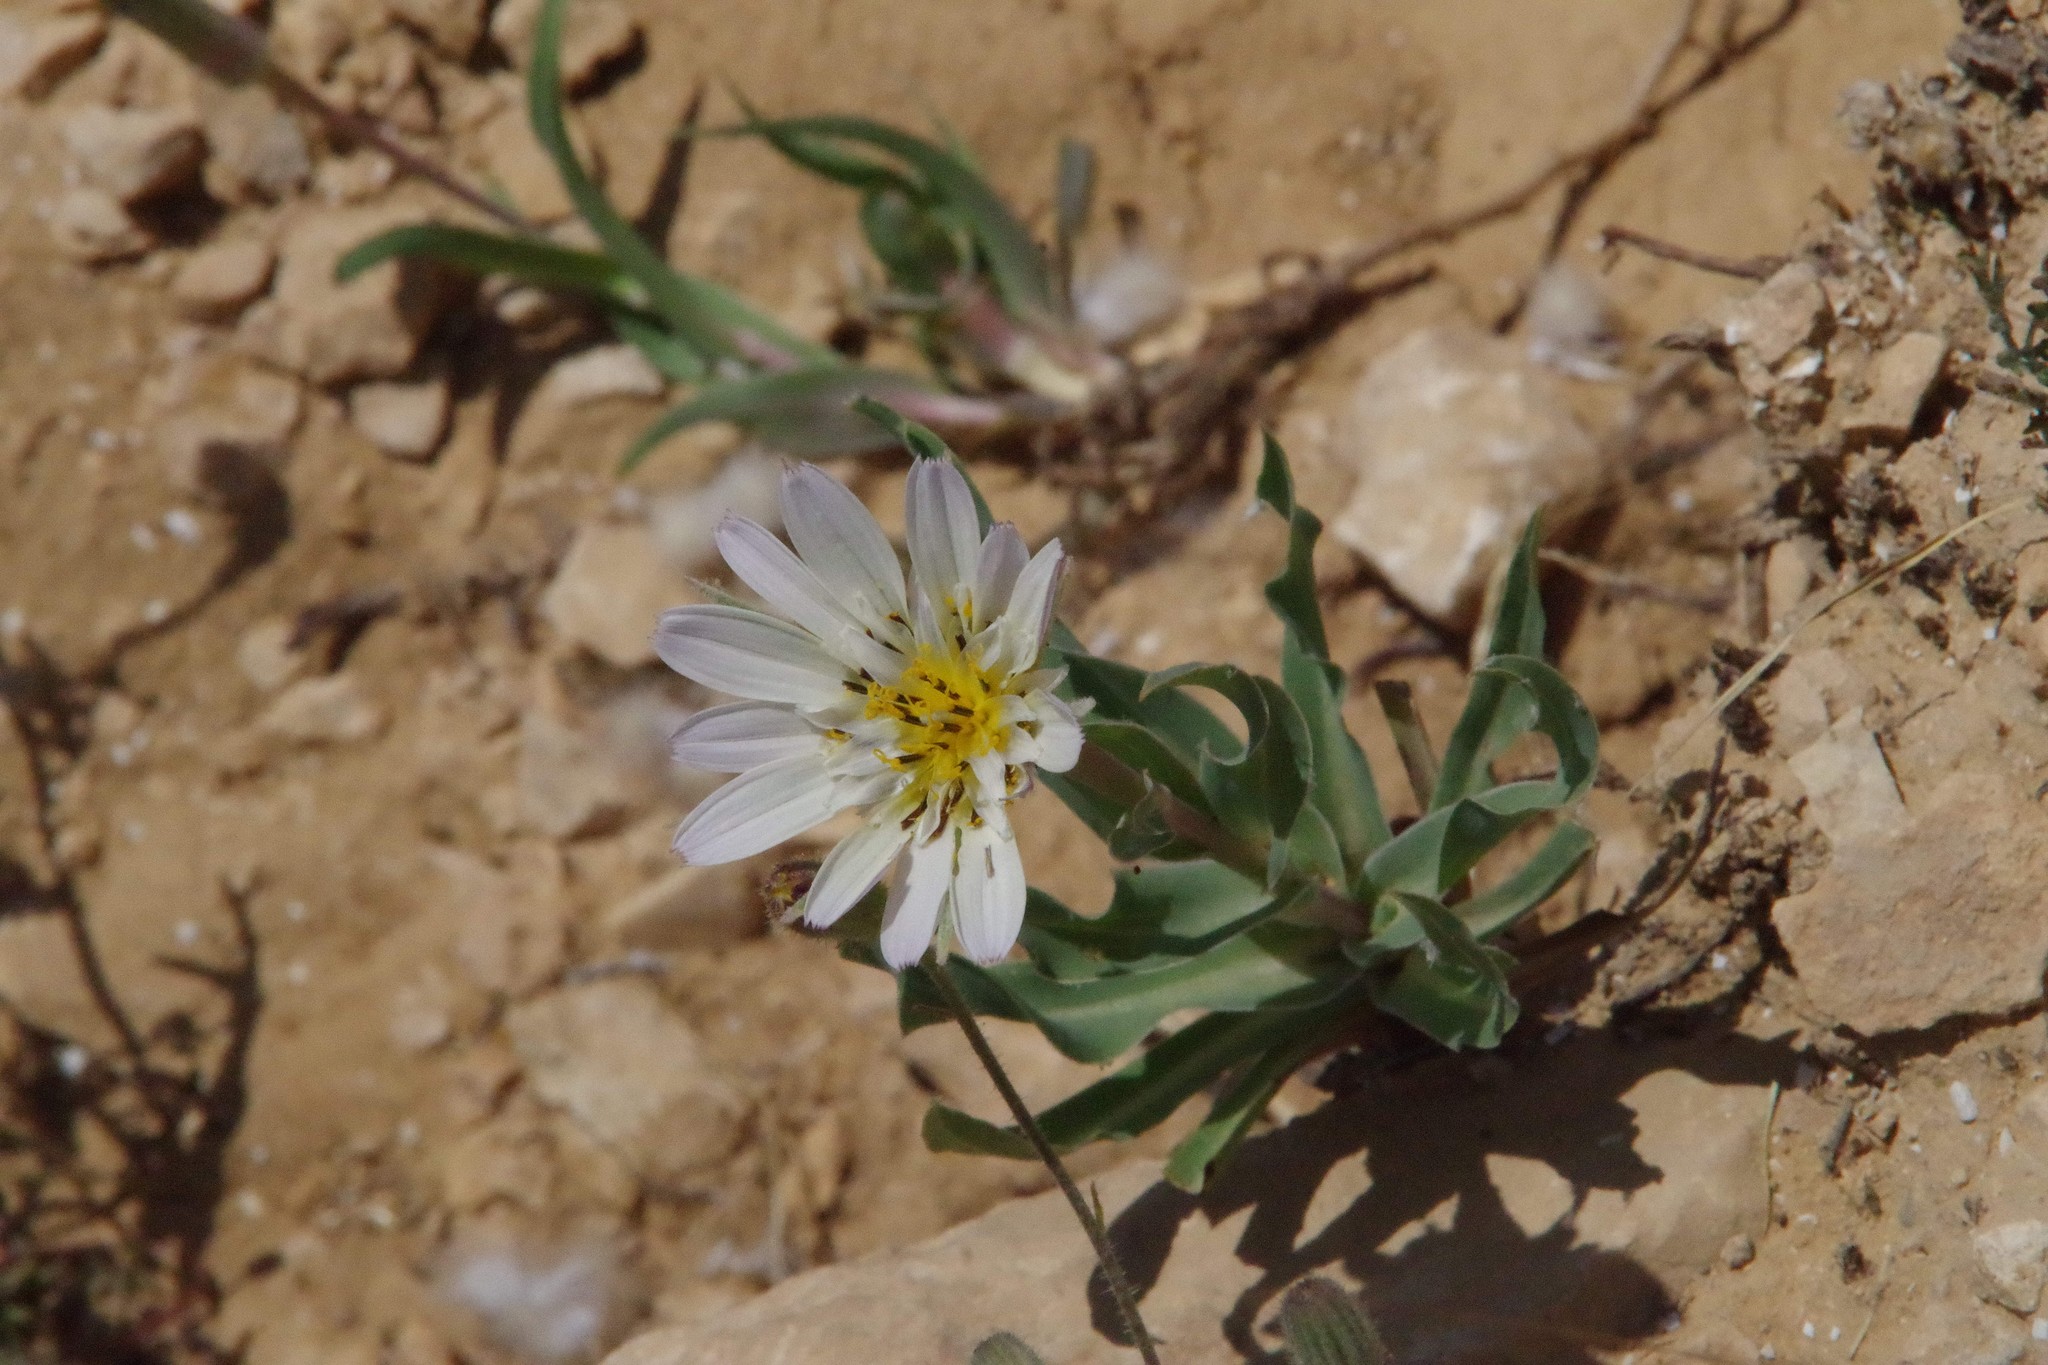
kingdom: Plantae
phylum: Tracheophyta
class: Magnoliopsida
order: Asterales
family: Asteraceae
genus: Tragopogon
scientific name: Tragopogon collinus
